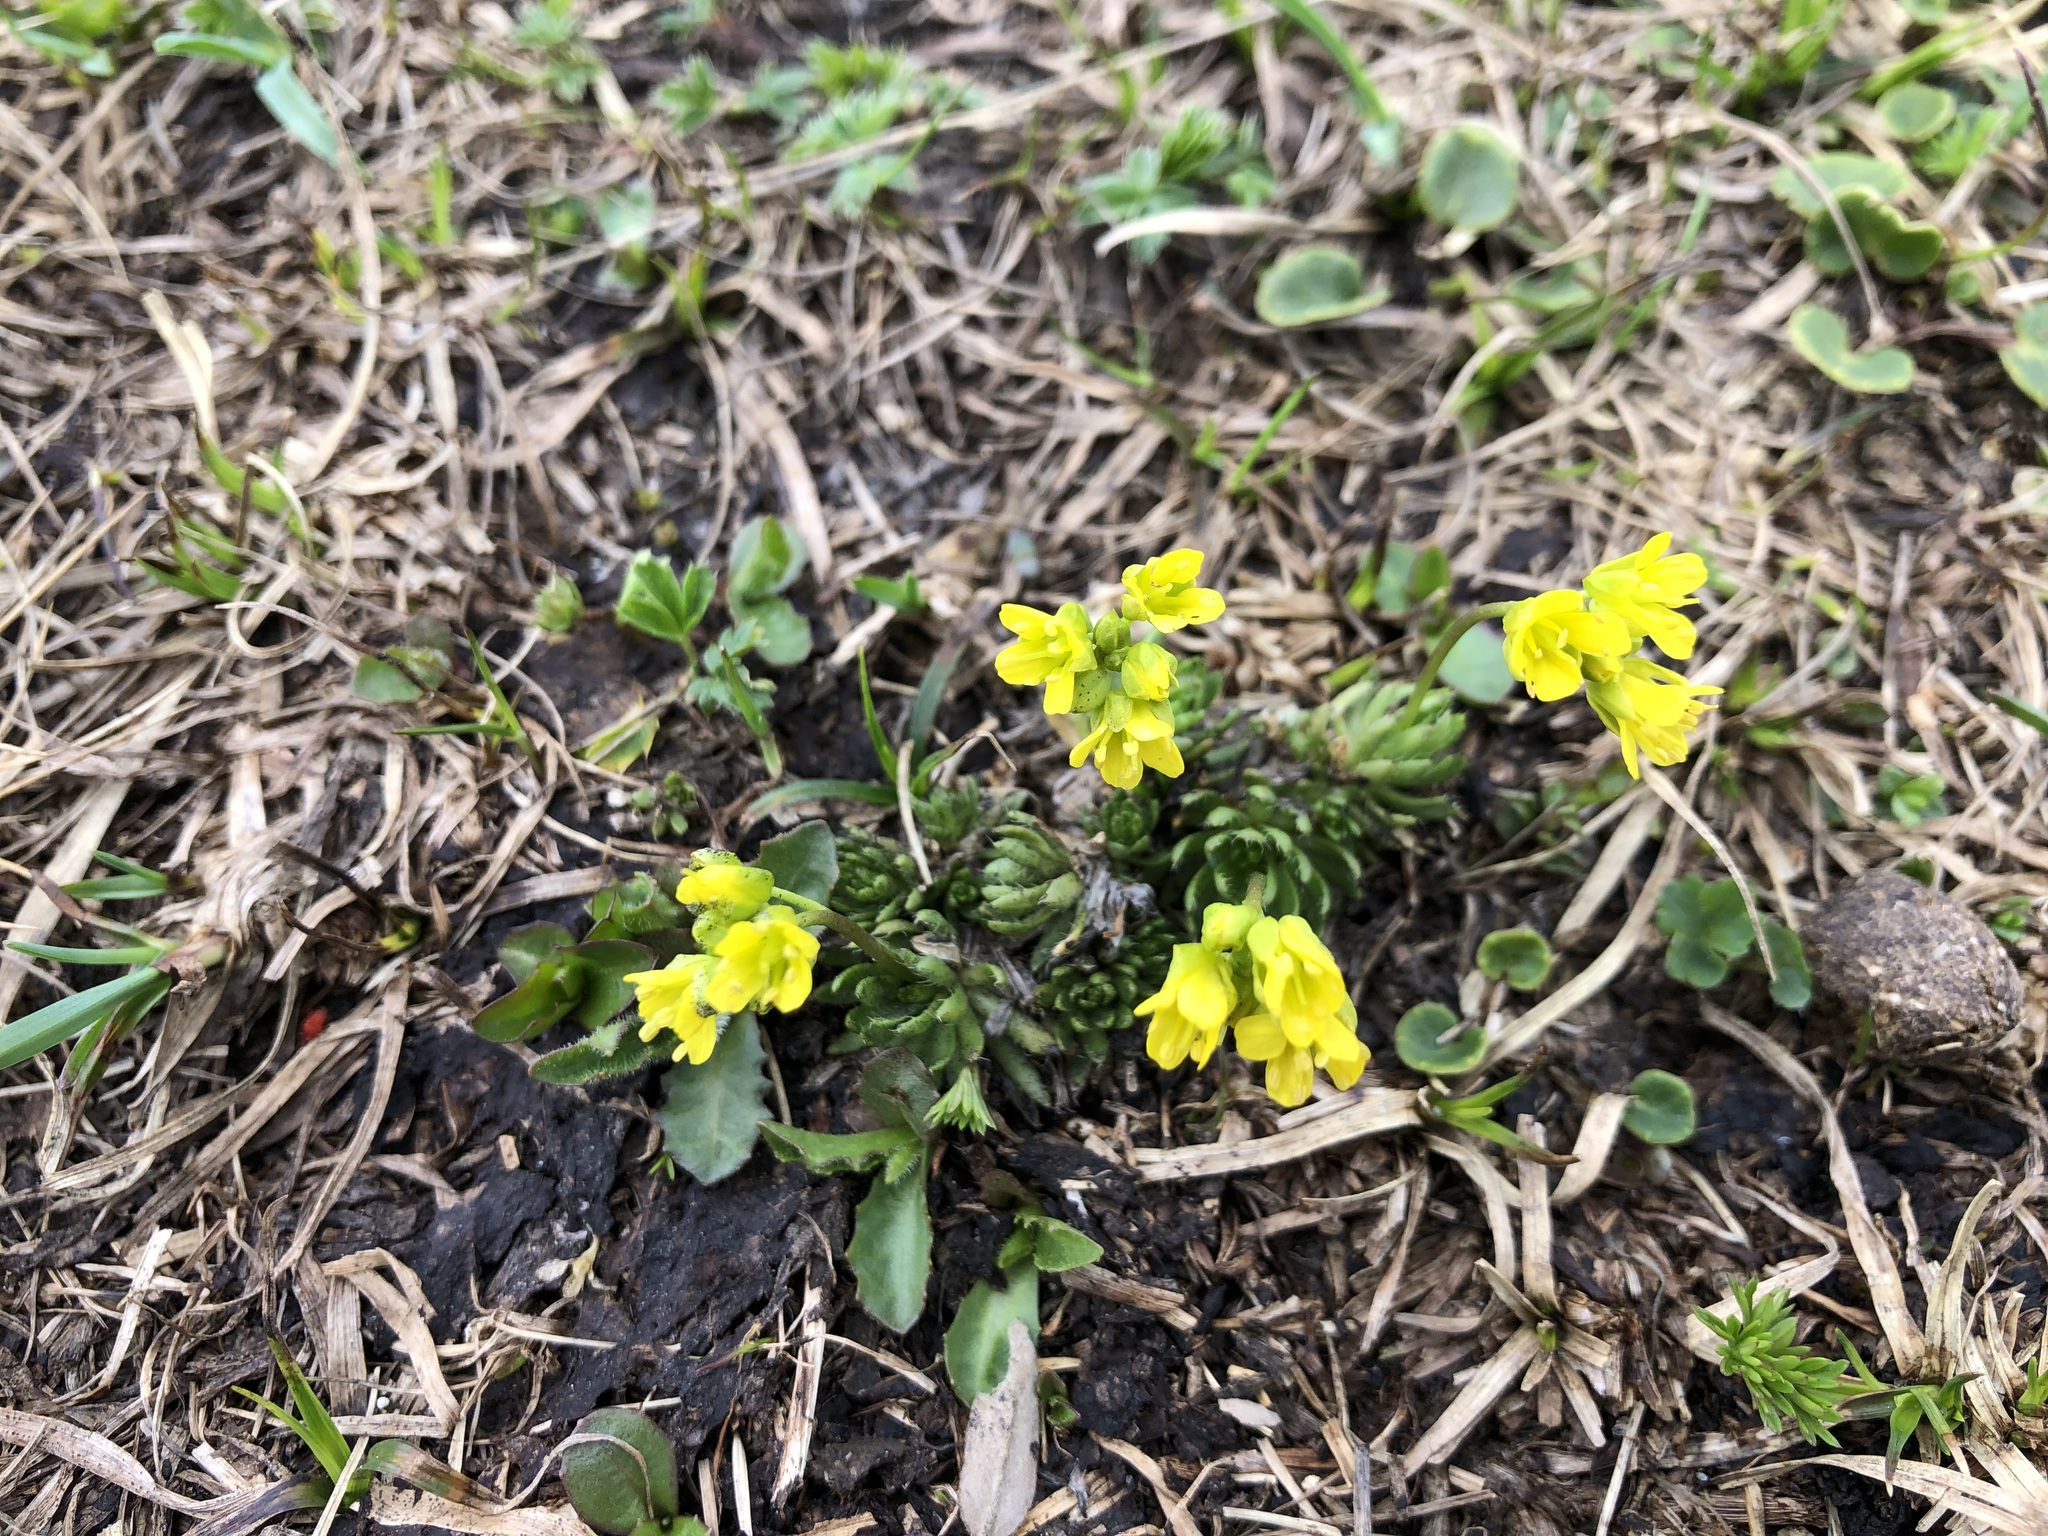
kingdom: Plantae
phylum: Tracheophyta
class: Magnoliopsida
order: Brassicales
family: Brassicaceae
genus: Draba
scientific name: Draba aizoides
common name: Yellow whitlowgrass
